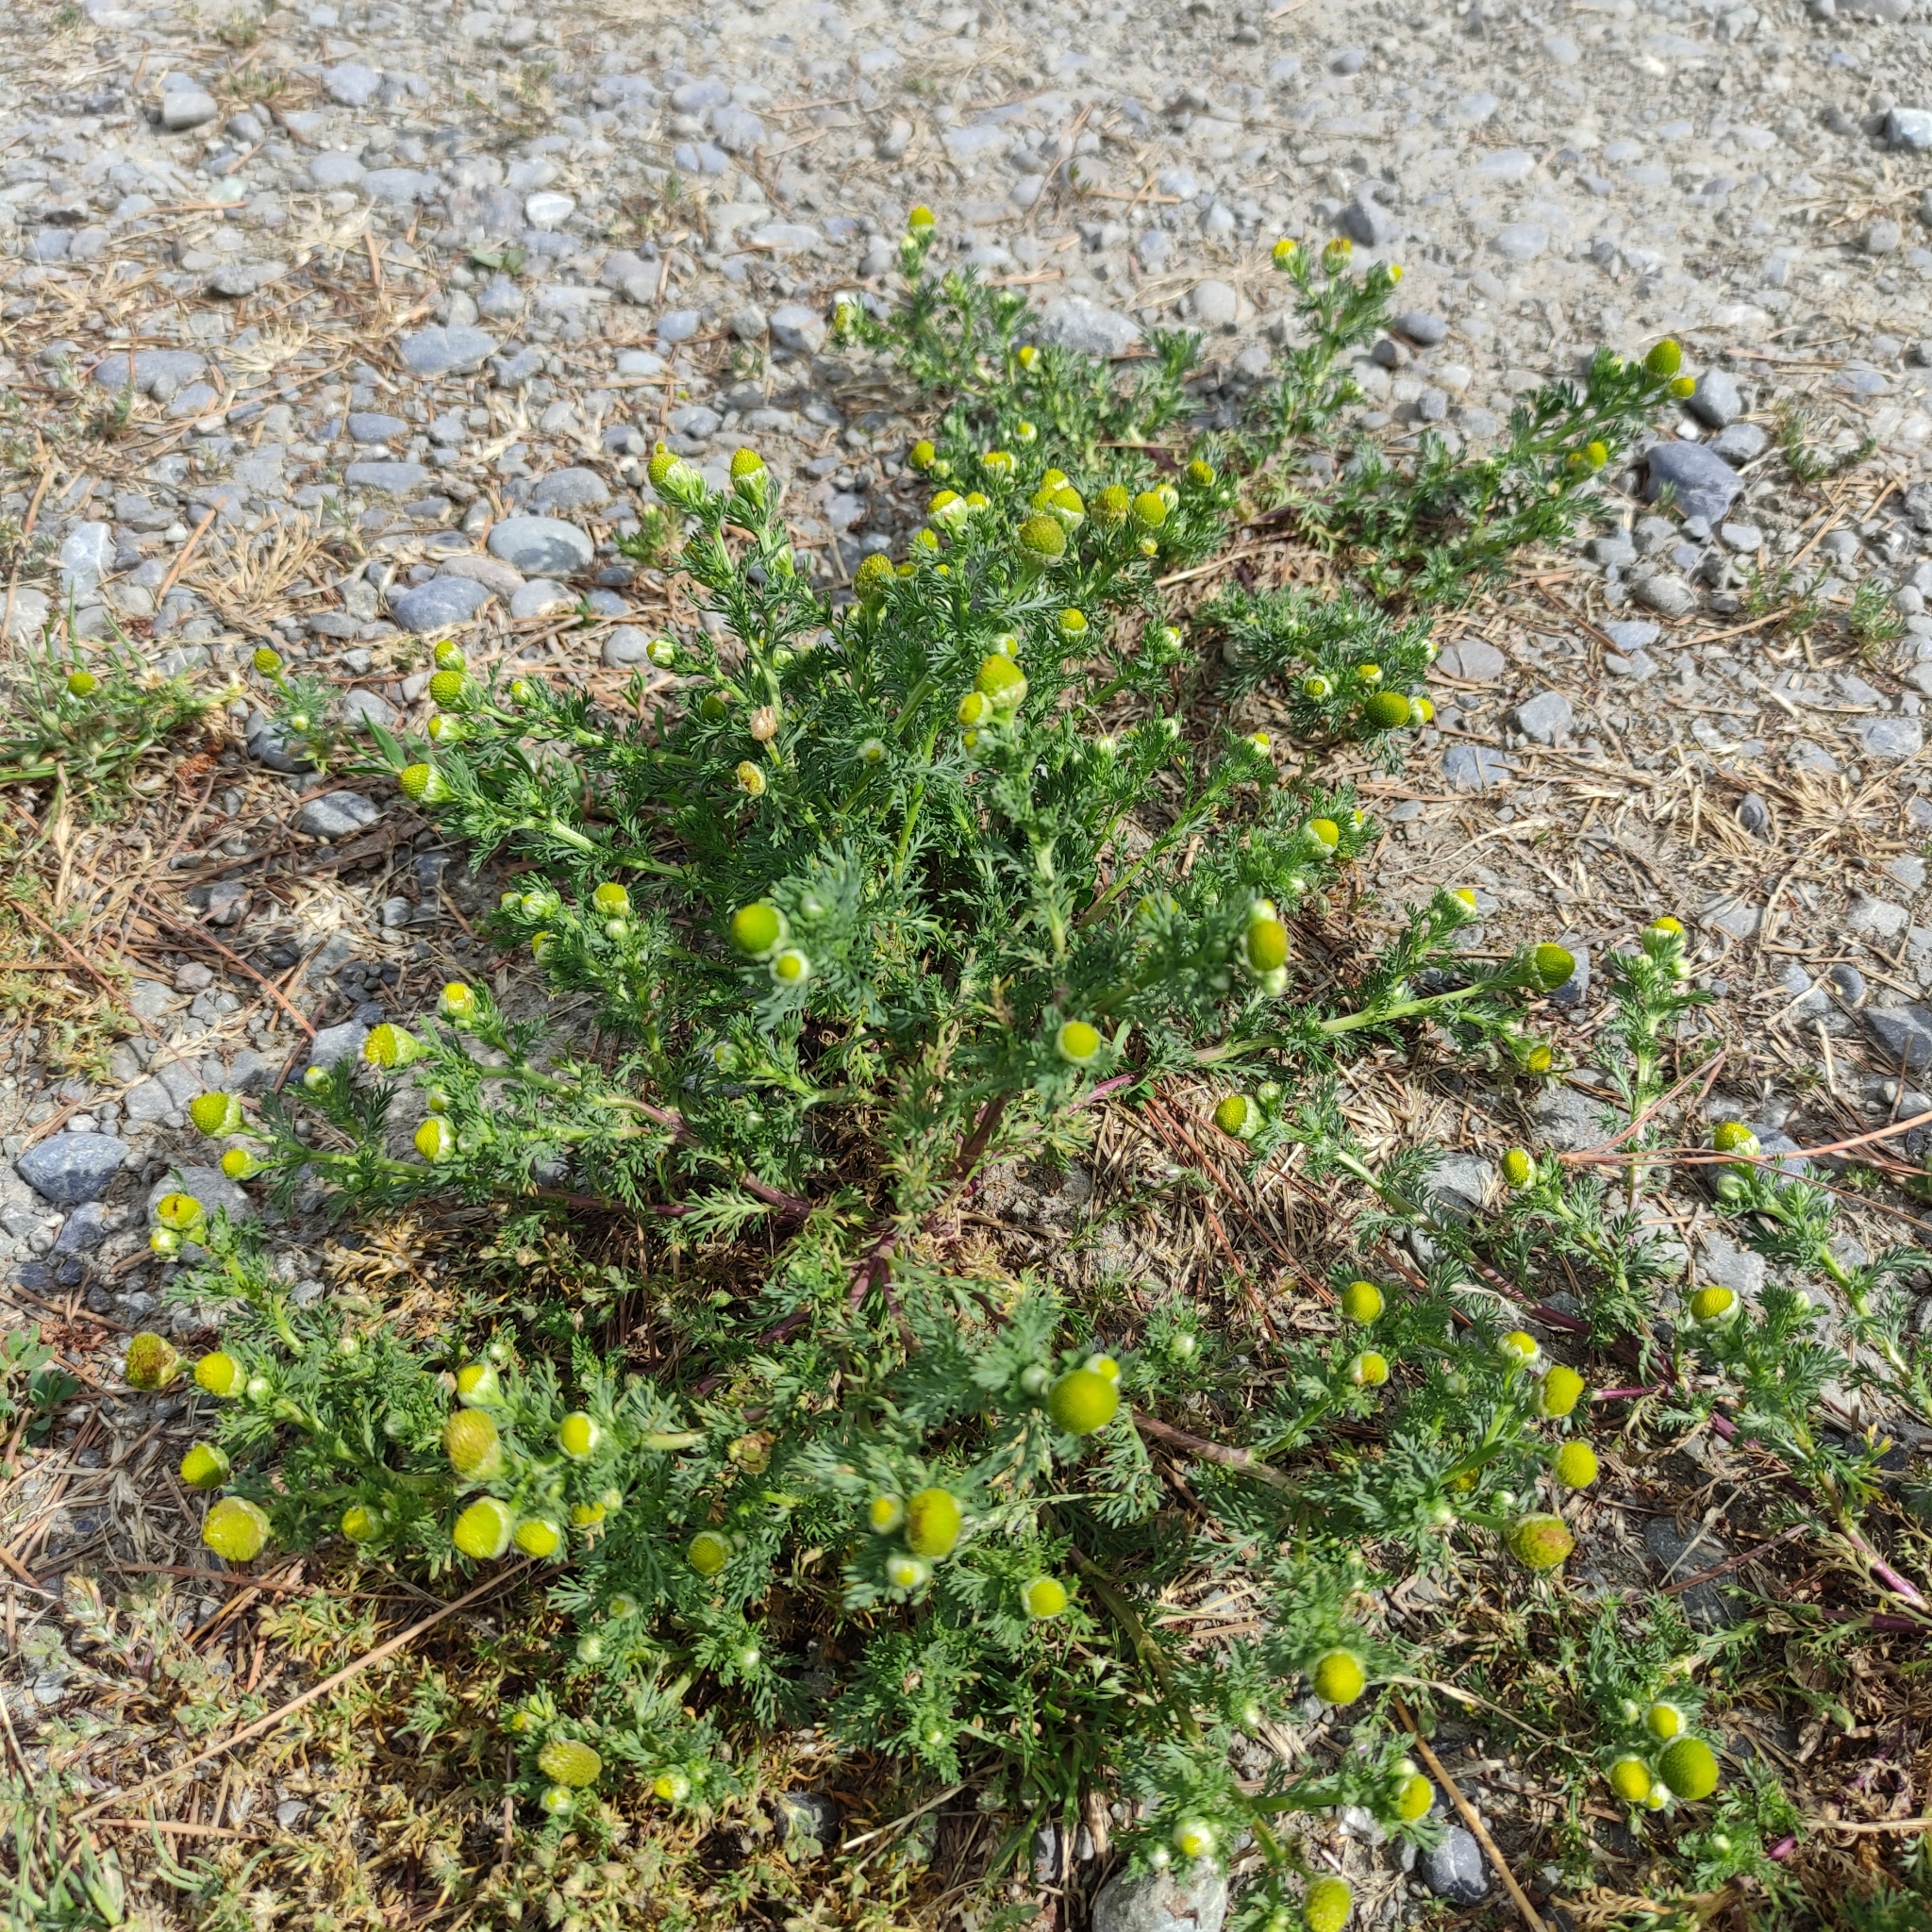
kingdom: Plantae
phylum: Tracheophyta
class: Magnoliopsida
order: Asterales
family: Asteraceae
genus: Matricaria
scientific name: Matricaria discoidea
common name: Disc mayweed
